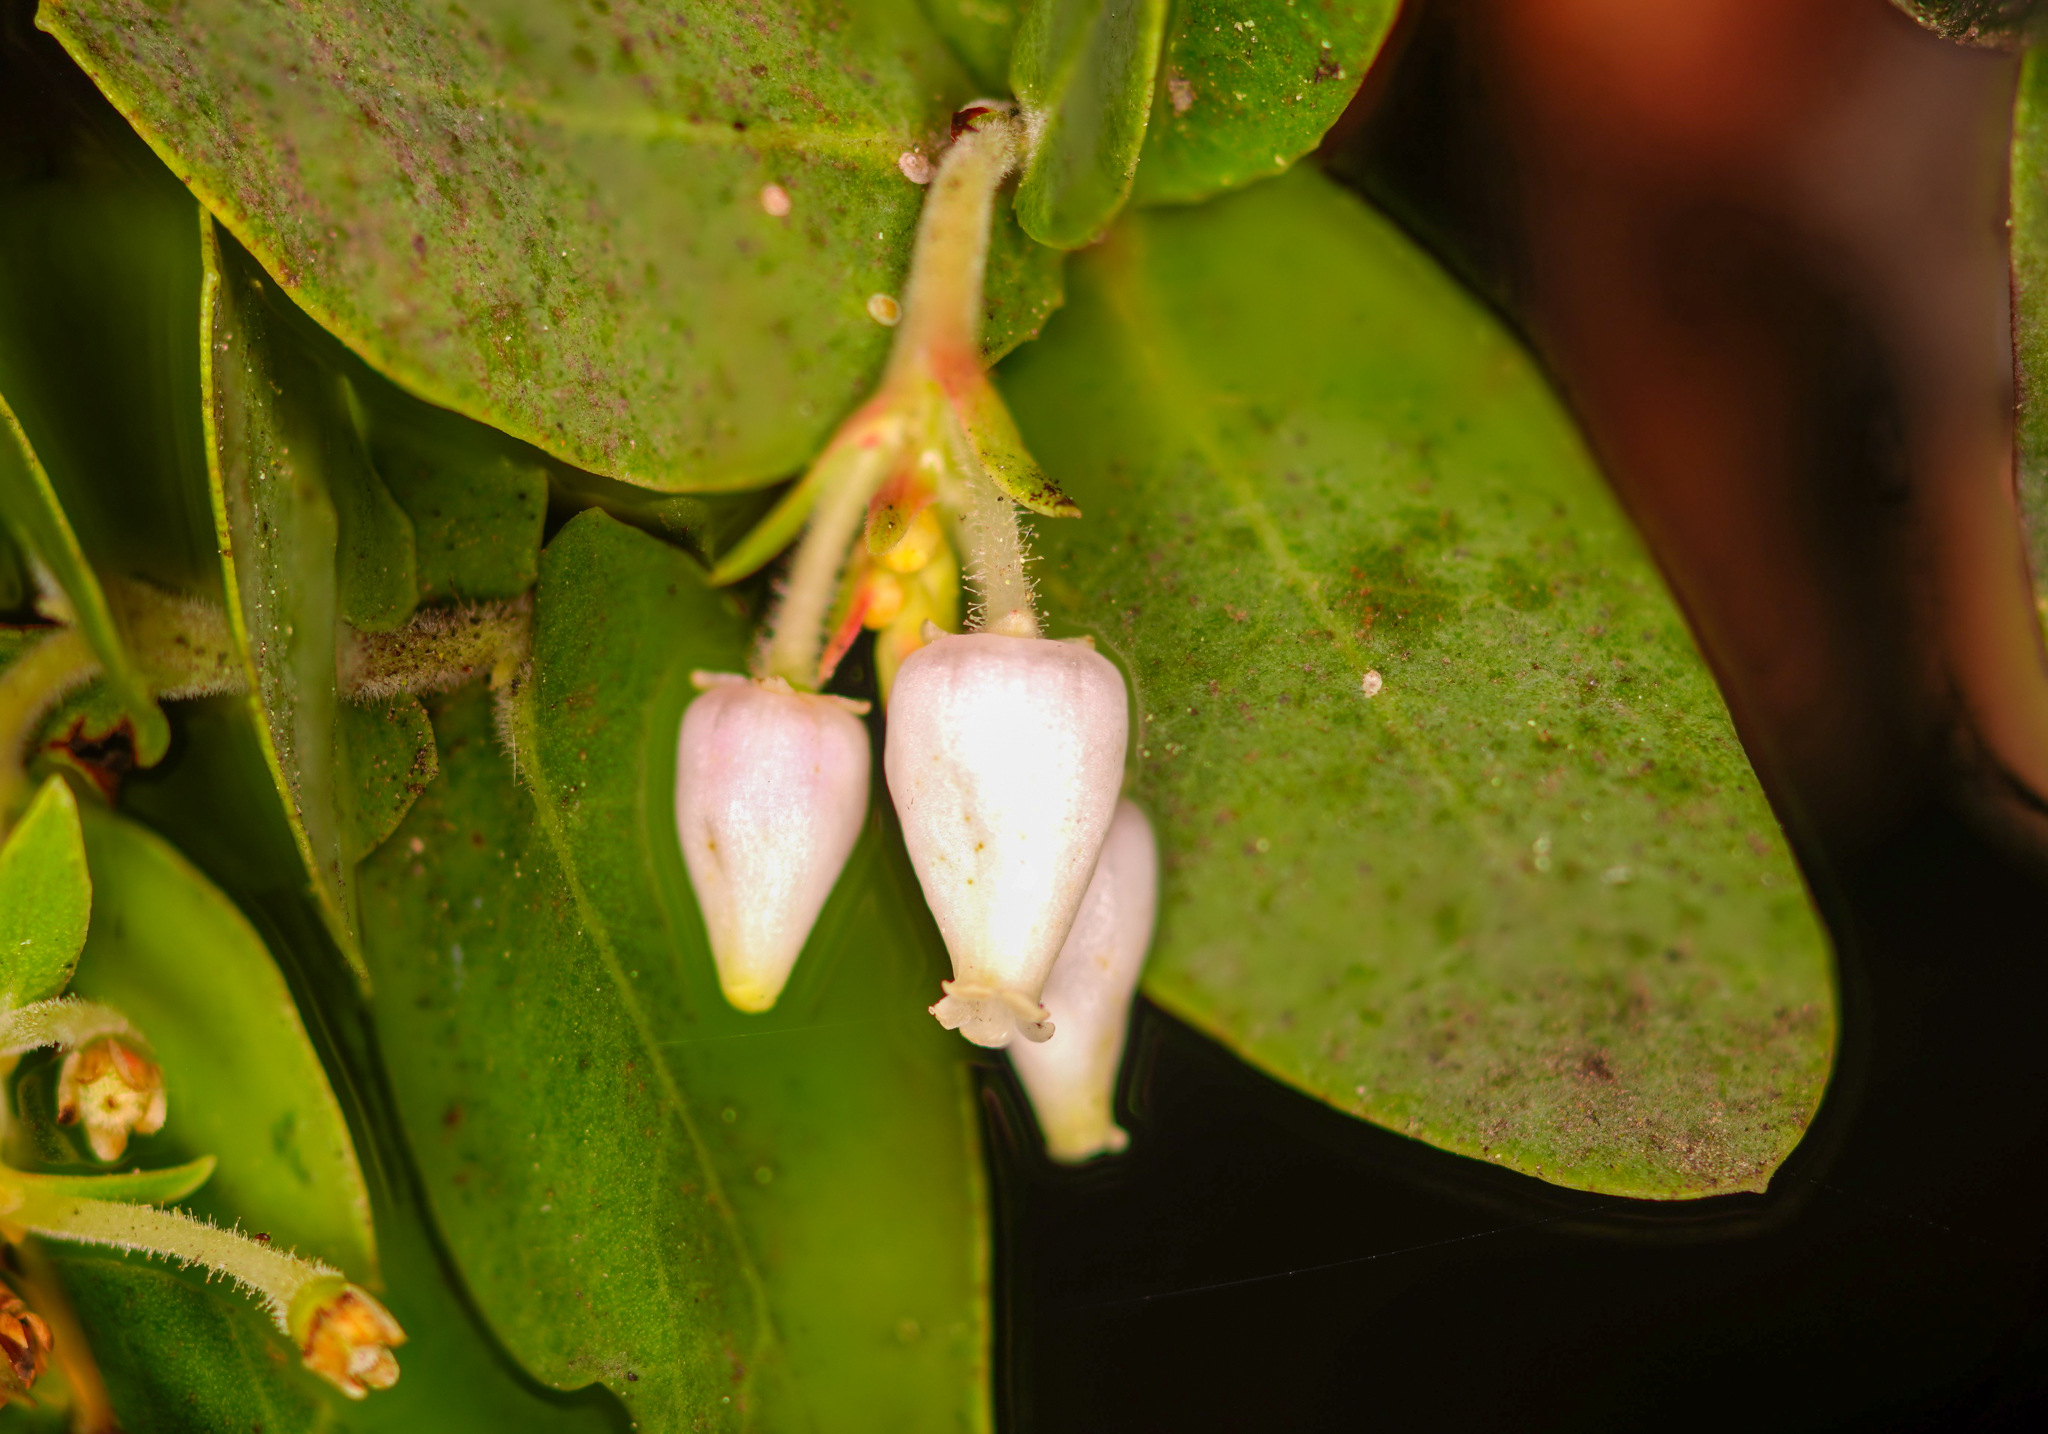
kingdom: Plantae
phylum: Tracheophyta
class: Magnoliopsida
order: Ericales
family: Ericaceae
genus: Arctostaphylos
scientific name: Arctostaphylos pallida
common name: Pallid manzanita
